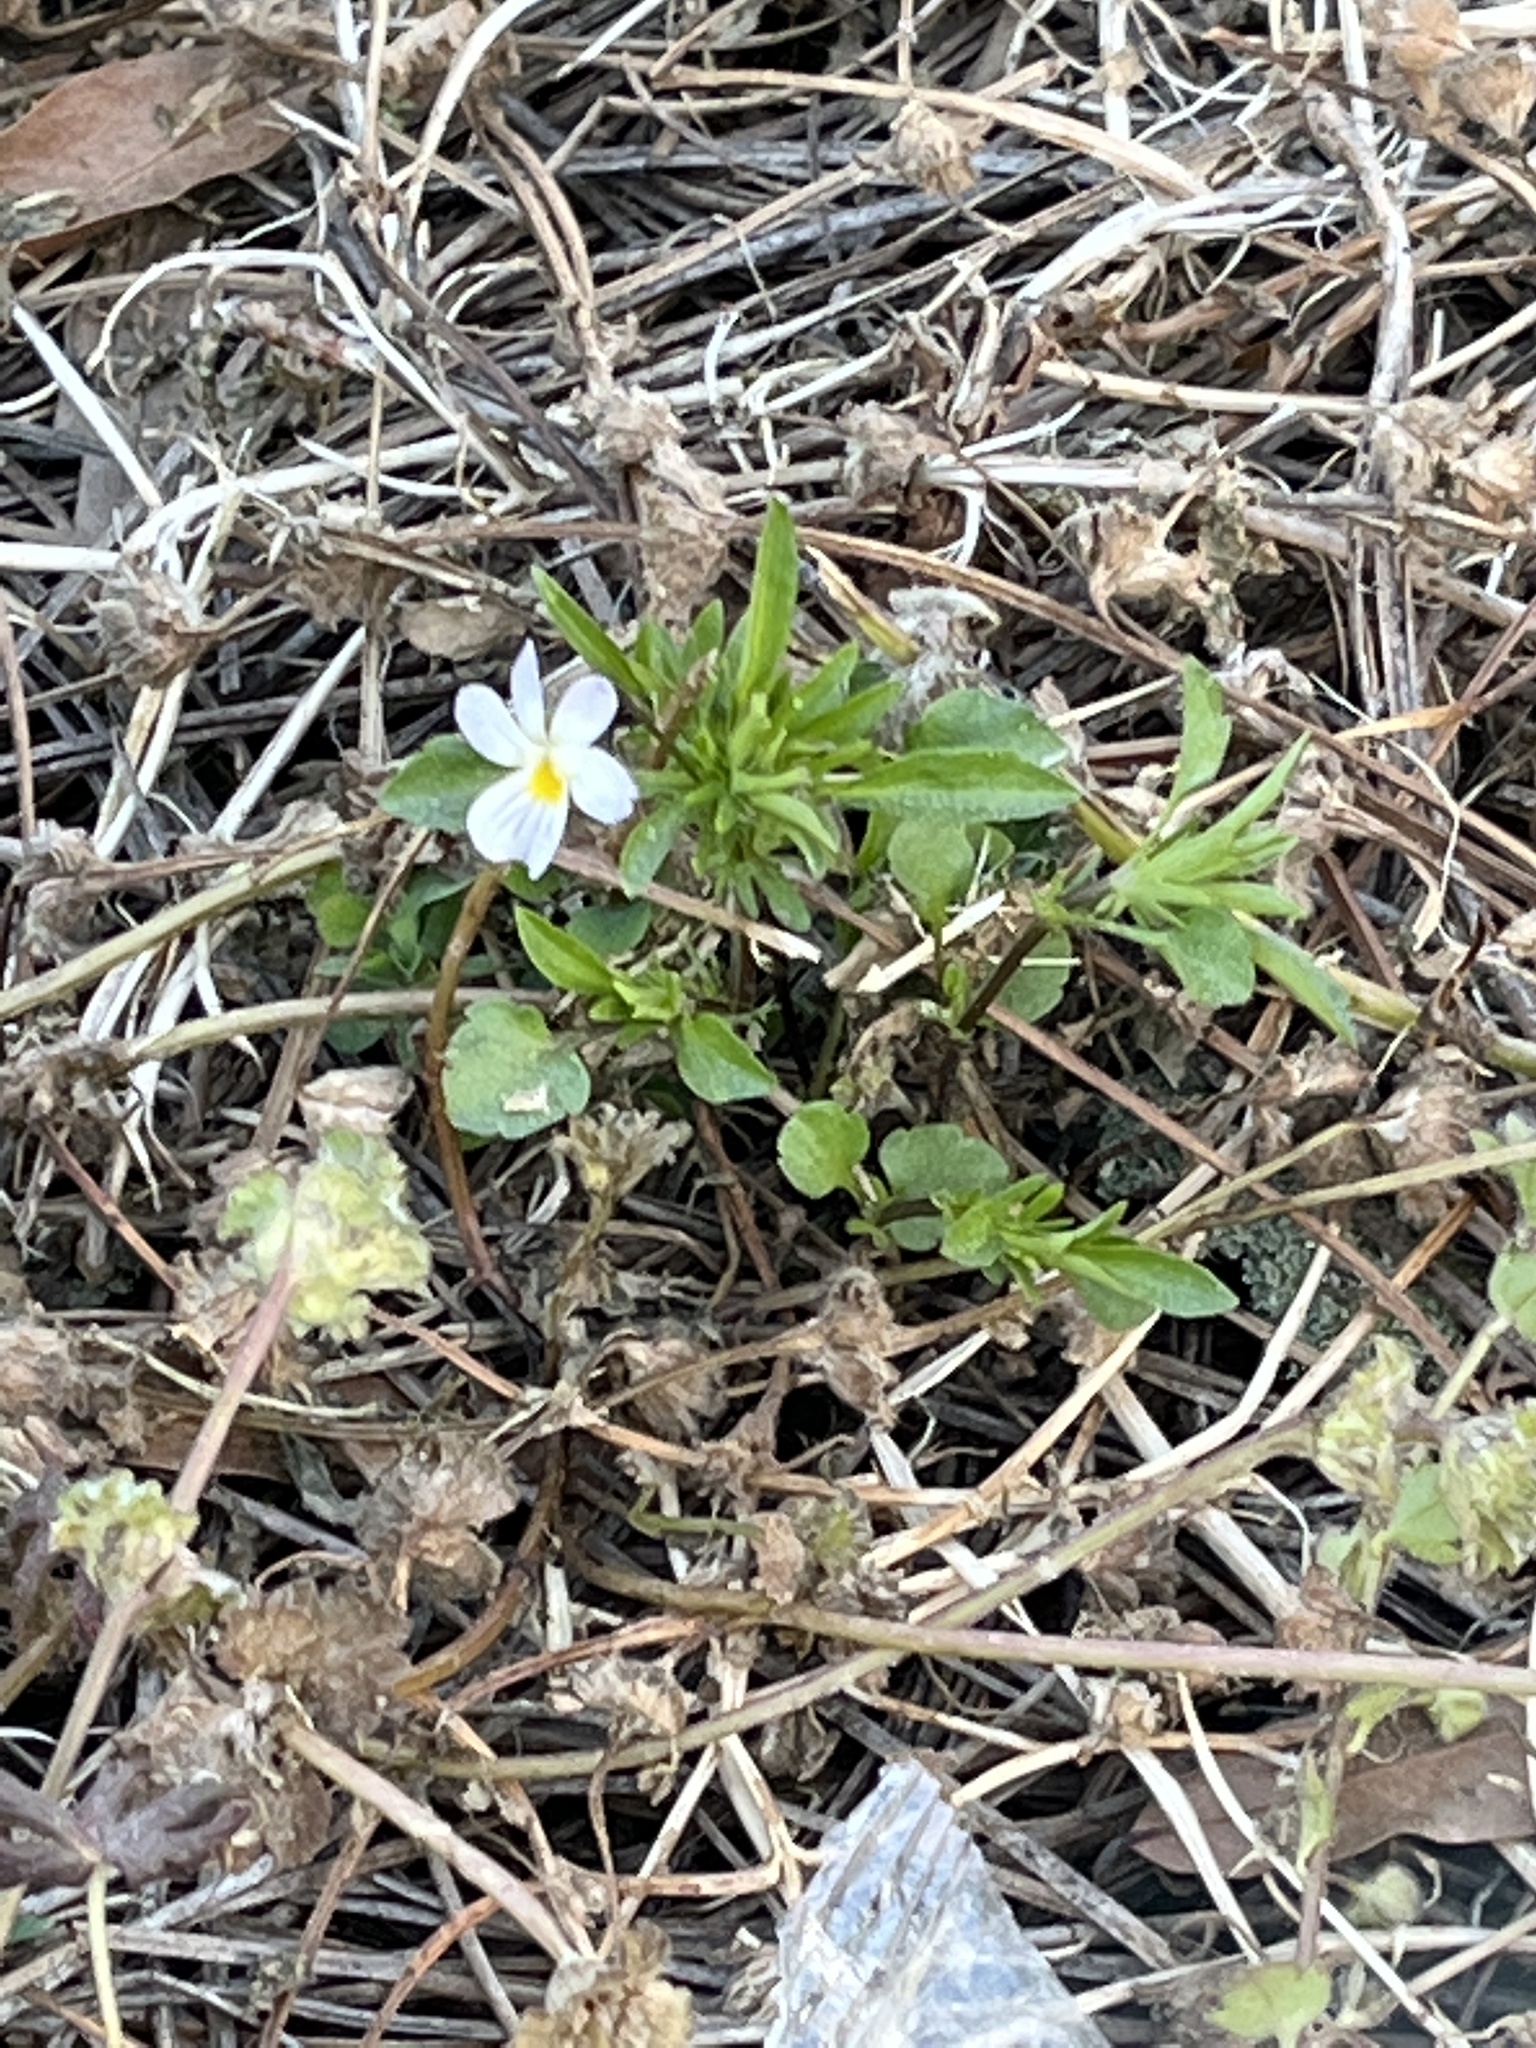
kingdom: Plantae
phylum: Tracheophyta
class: Magnoliopsida
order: Malpighiales
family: Violaceae
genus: Viola
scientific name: Viola rafinesquei
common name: American field pansy
